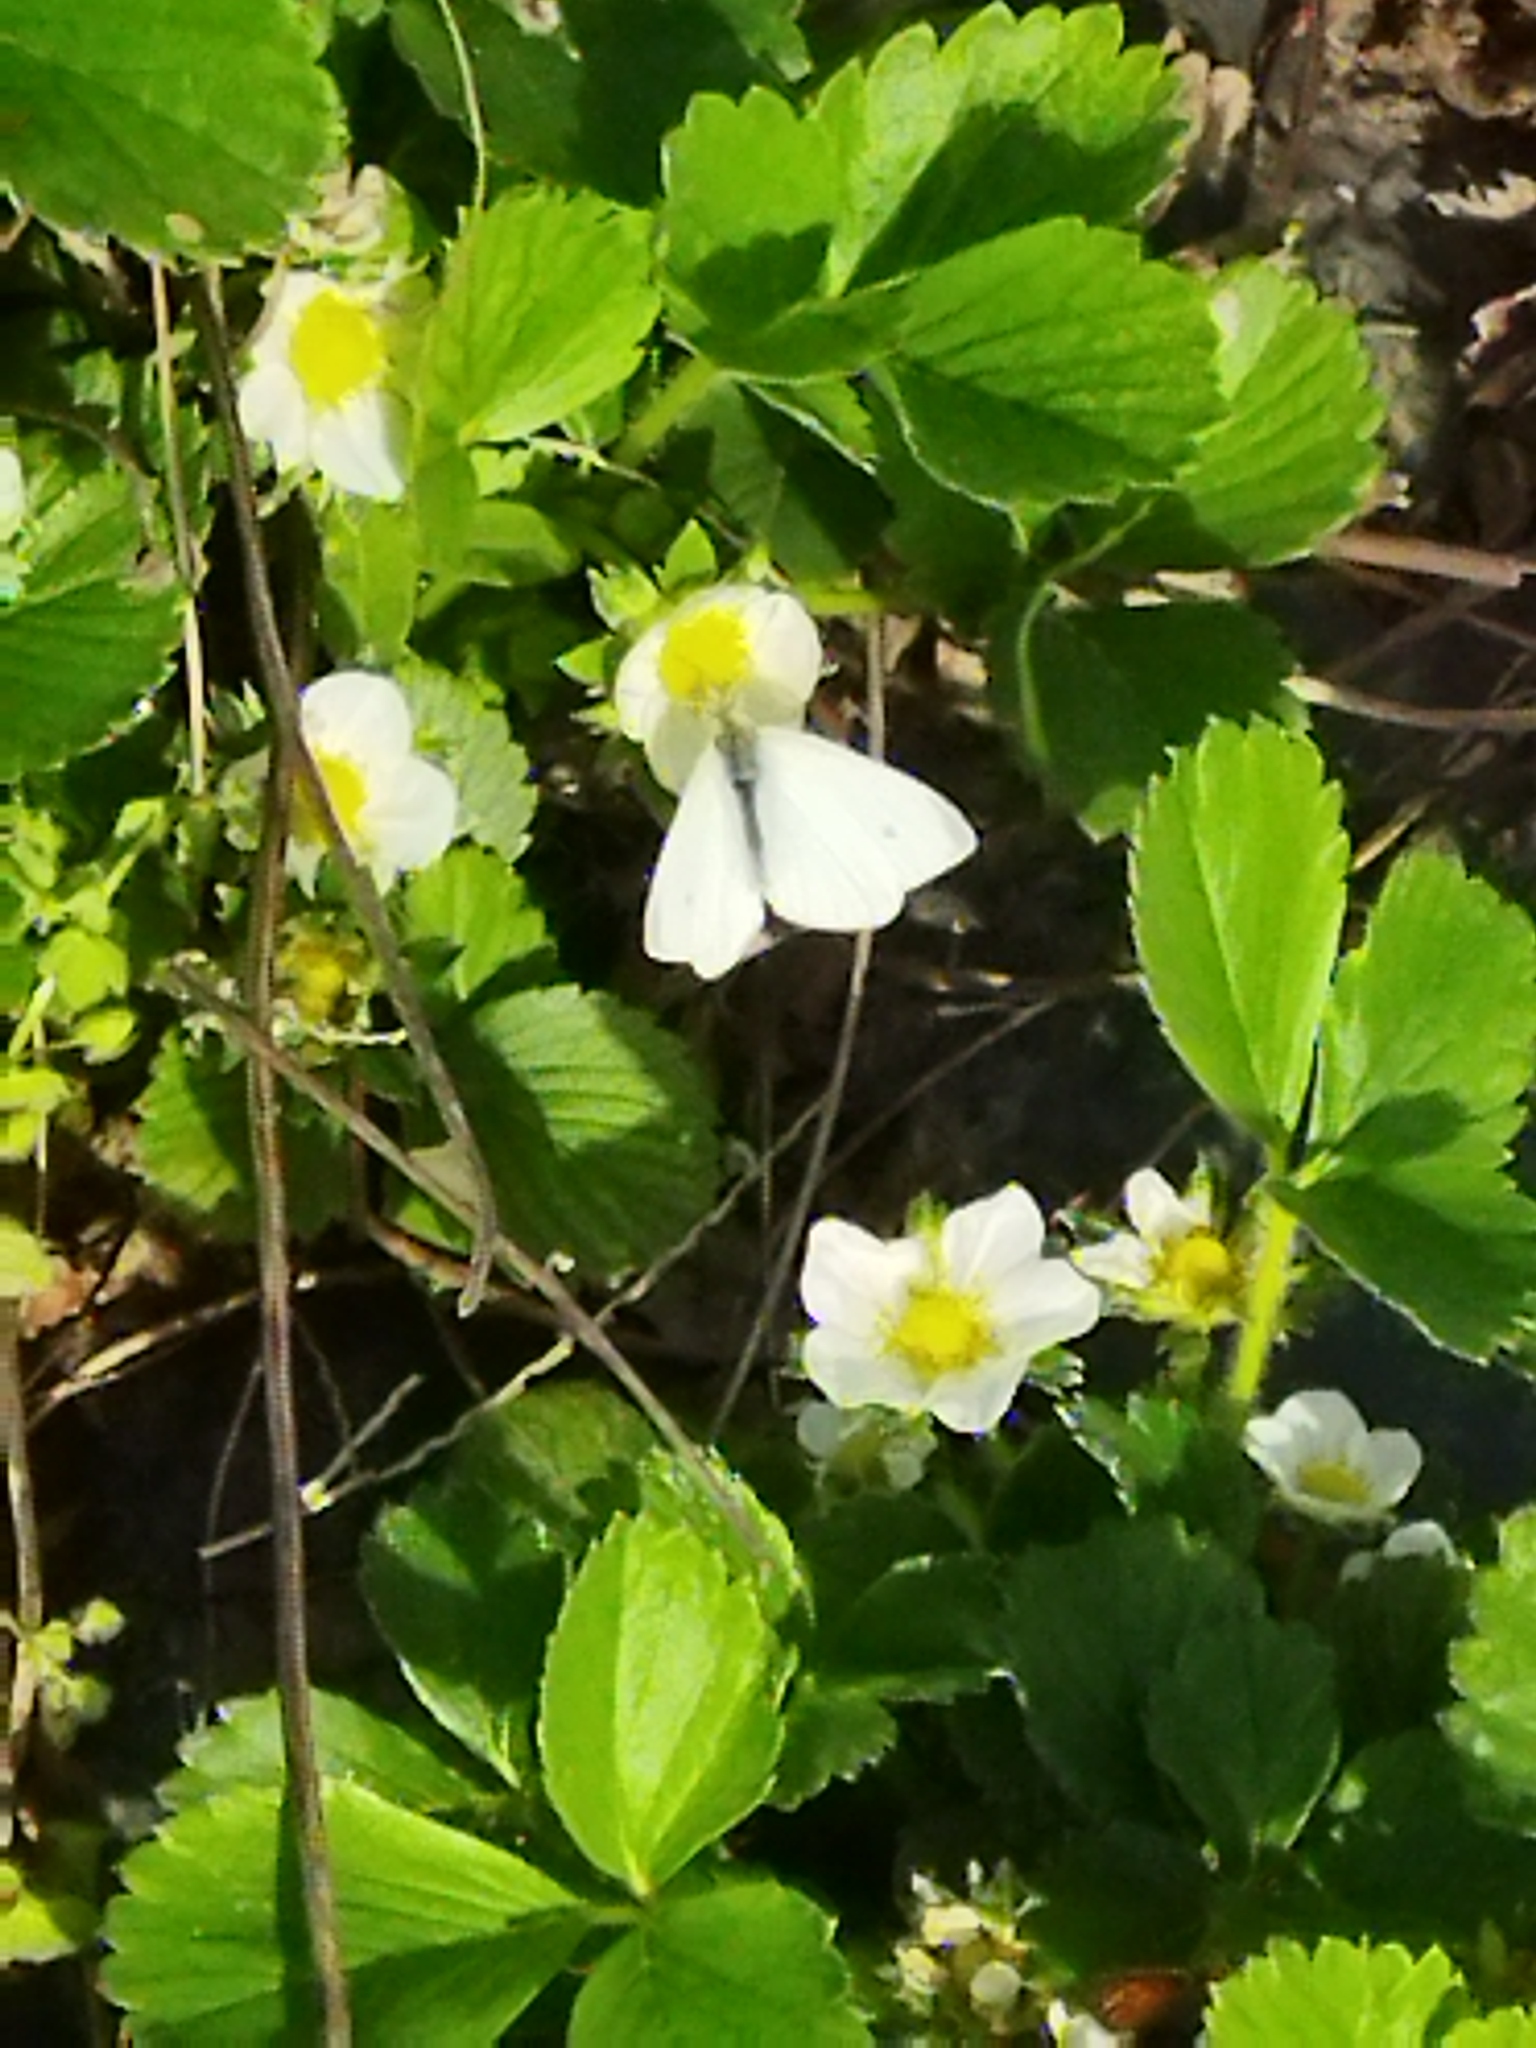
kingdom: Animalia
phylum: Arthropoda
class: Insecta
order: Lepidoptera
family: Pieridae
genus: Pieris
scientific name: Pieris rapae
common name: Small white
